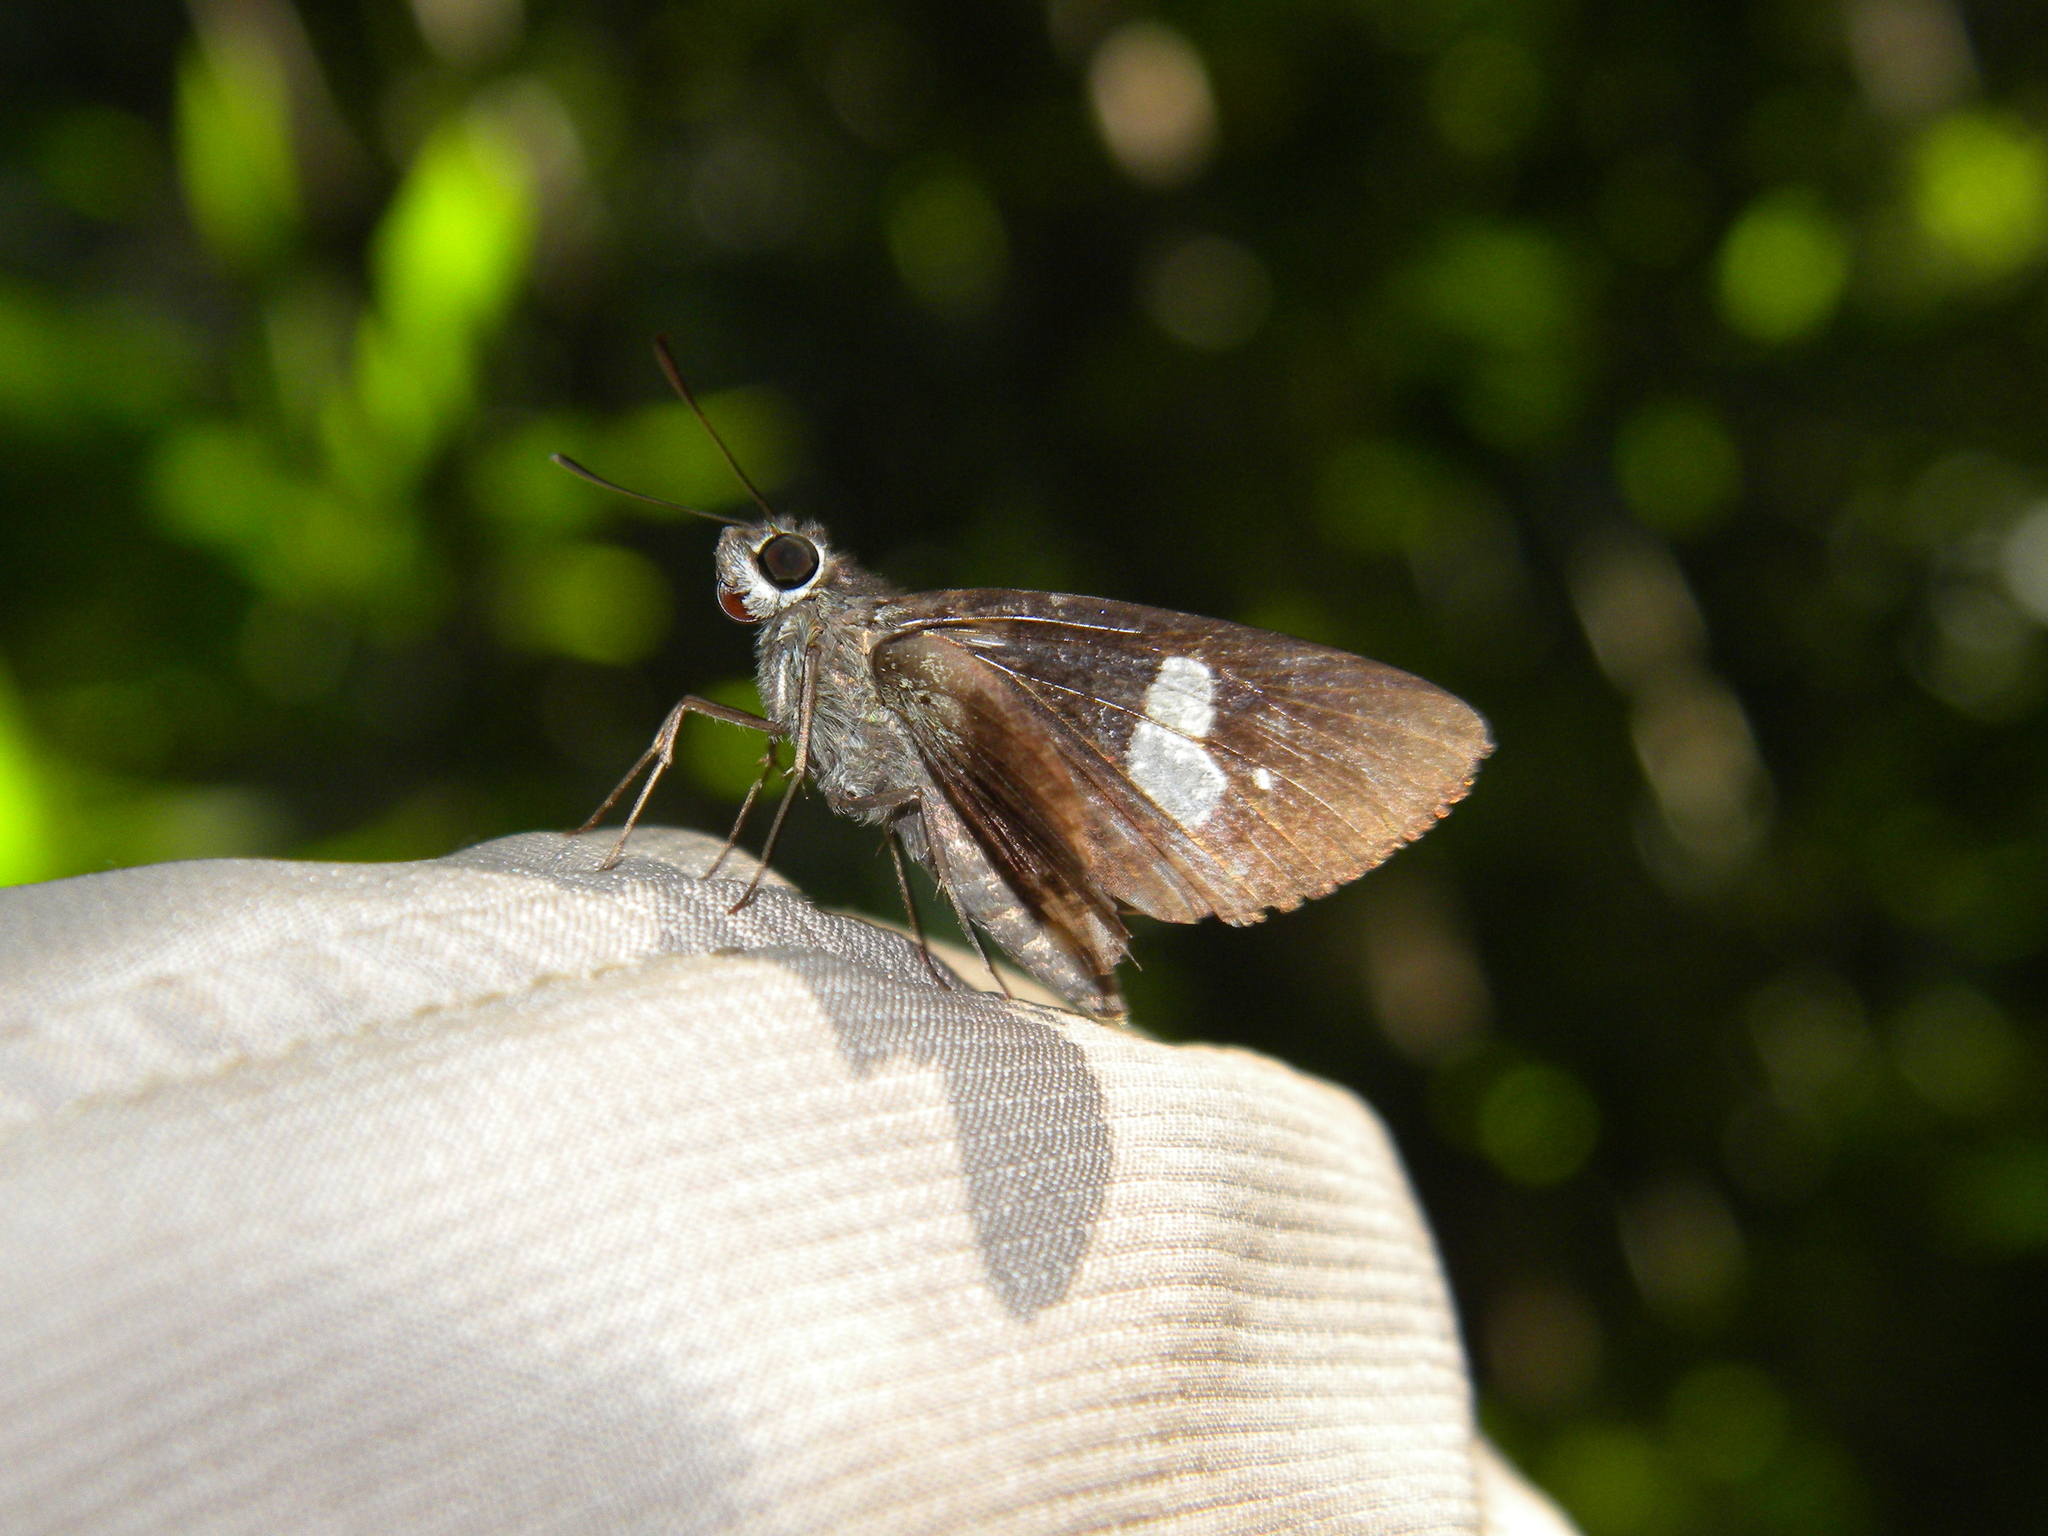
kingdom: Animalia
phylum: Arthropoda
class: Insecta
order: Lepidoptera
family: Hesperiidae
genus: Quedara
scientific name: Quedara basiflava
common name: Golden flitter
